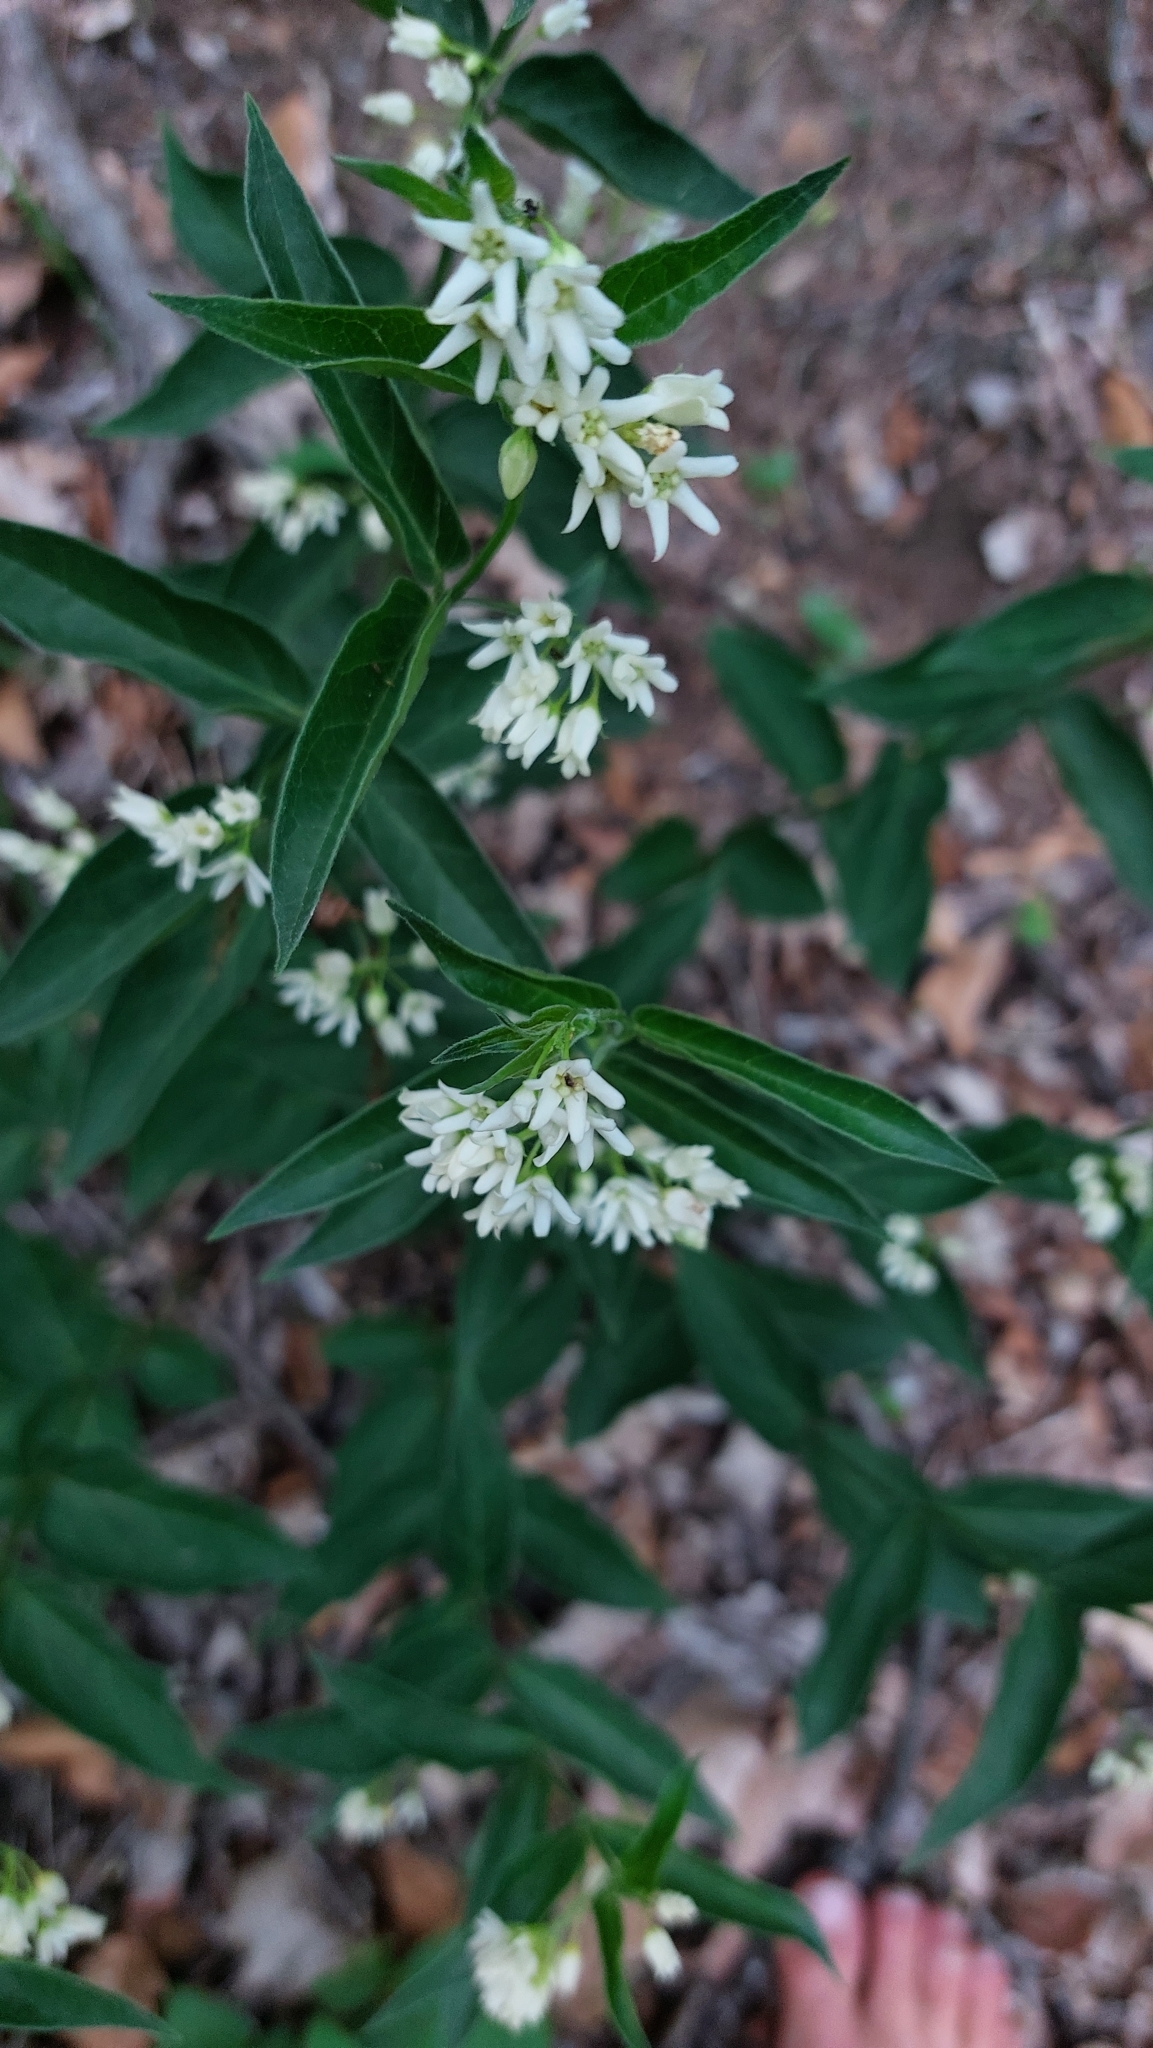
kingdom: Plantae
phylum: Tracheophyta
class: Magnoliopsida
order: Gentianales
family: Apocynaceae
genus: Vincetoxicum
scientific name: Vincetoxicum hirundinaria
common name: White swallowwort
